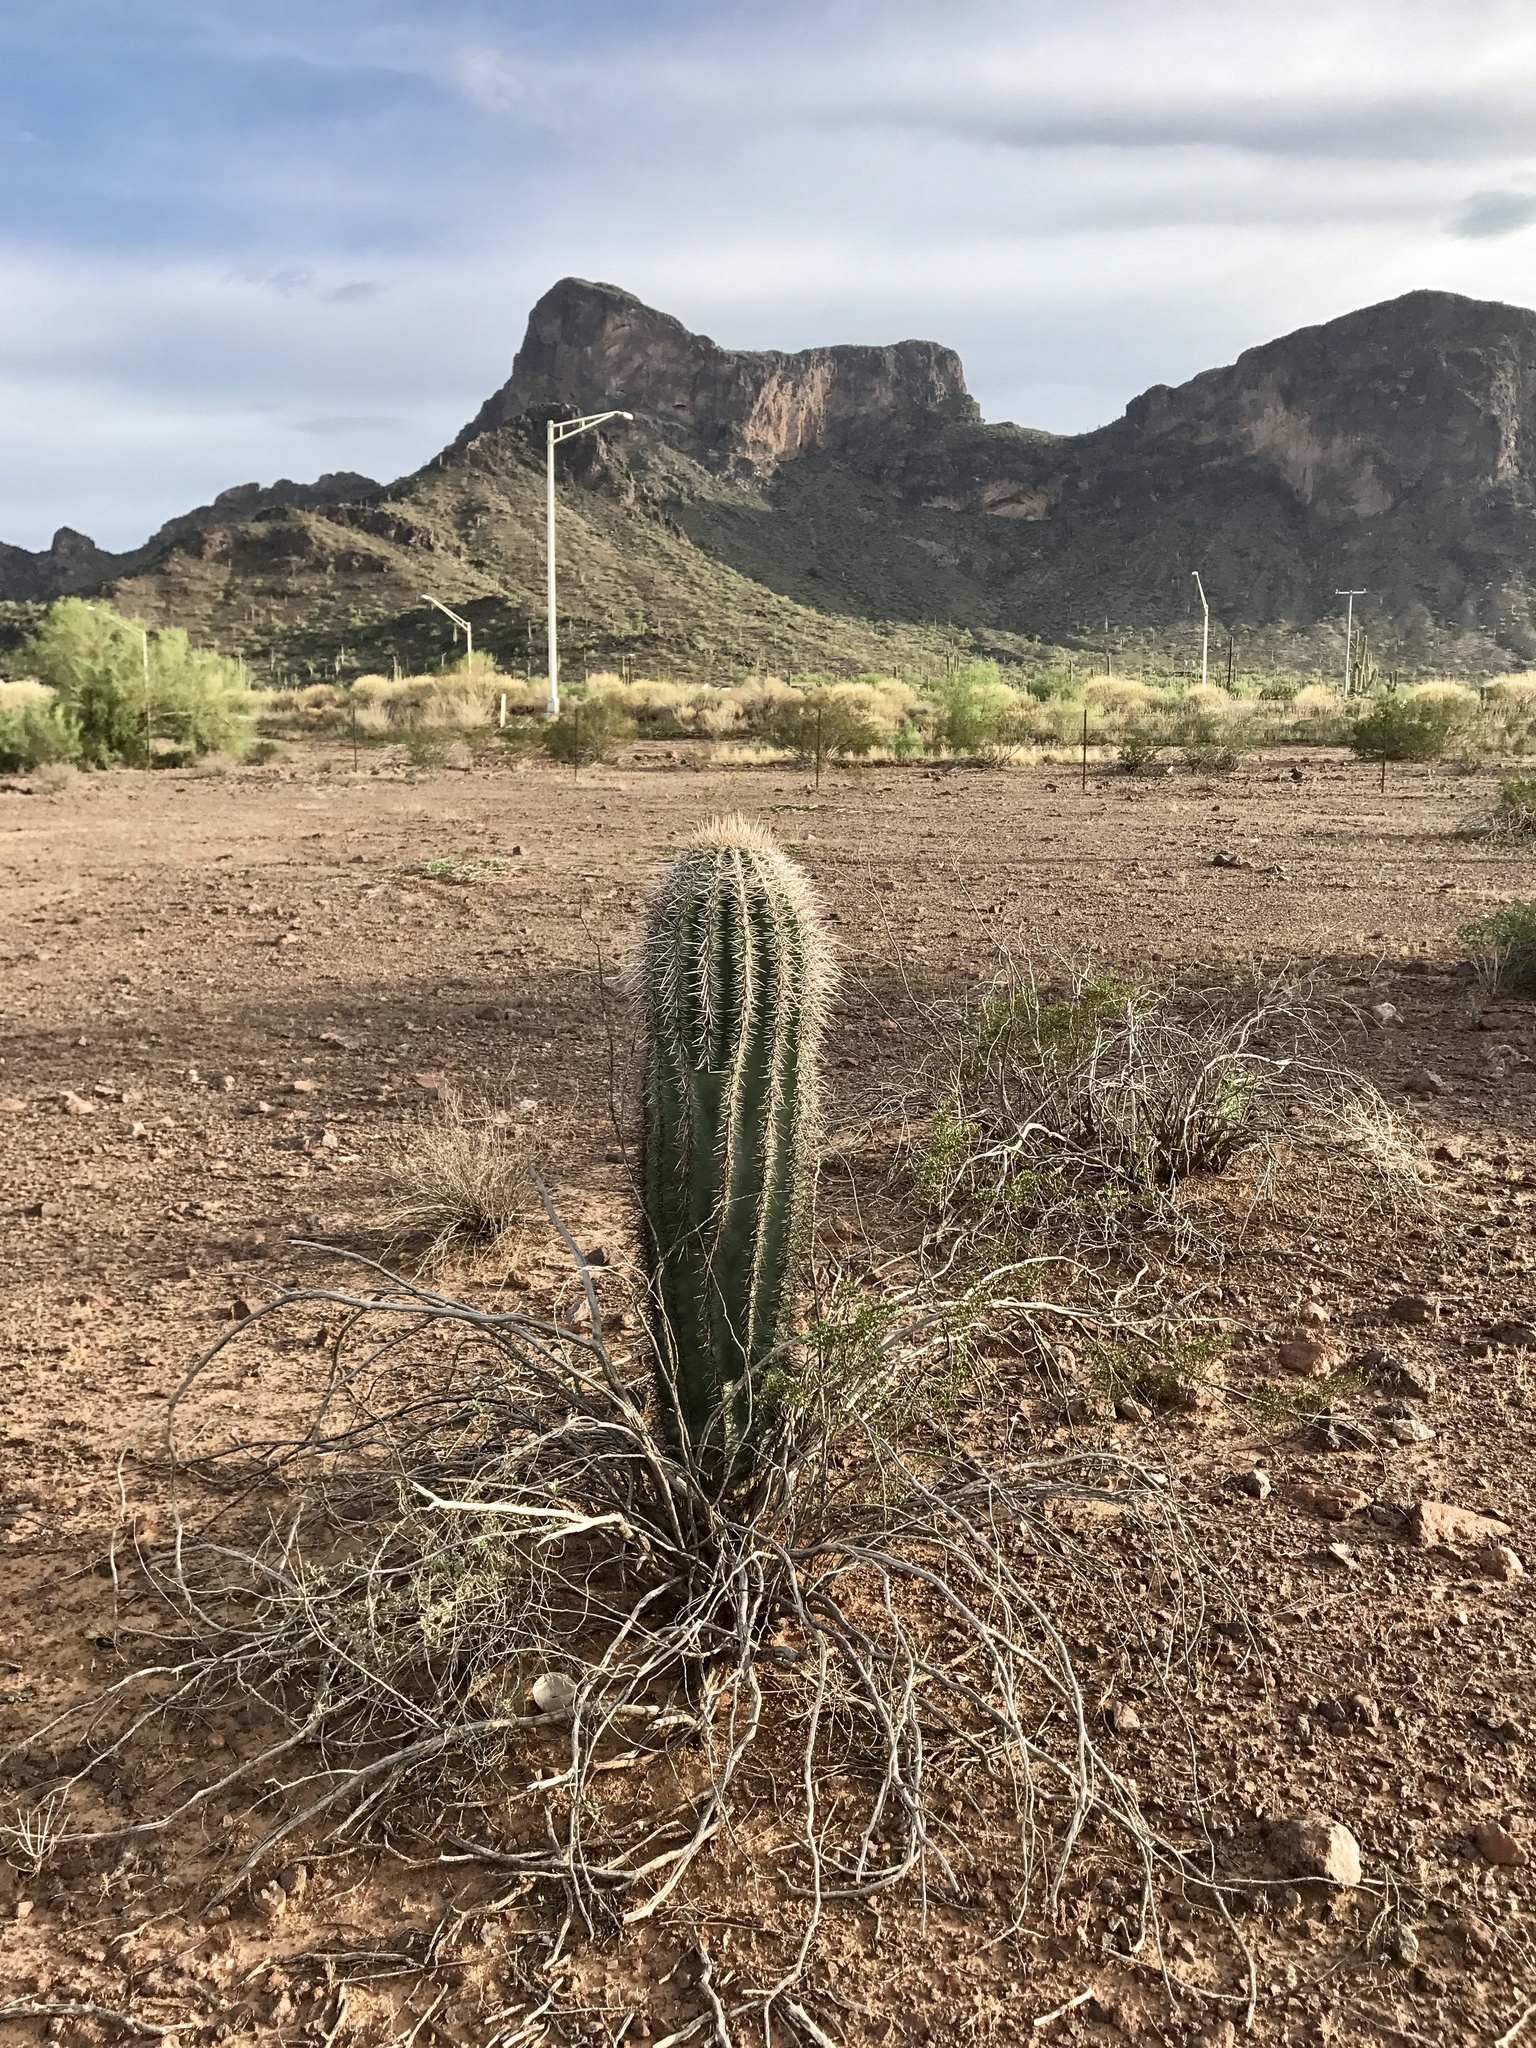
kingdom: Plantae
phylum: Tracheophyta
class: Magnoliopsida
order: Caryophyllales
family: Cactaceae
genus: Carnegiea
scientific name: Carnegiea gigantea
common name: Saguaro
